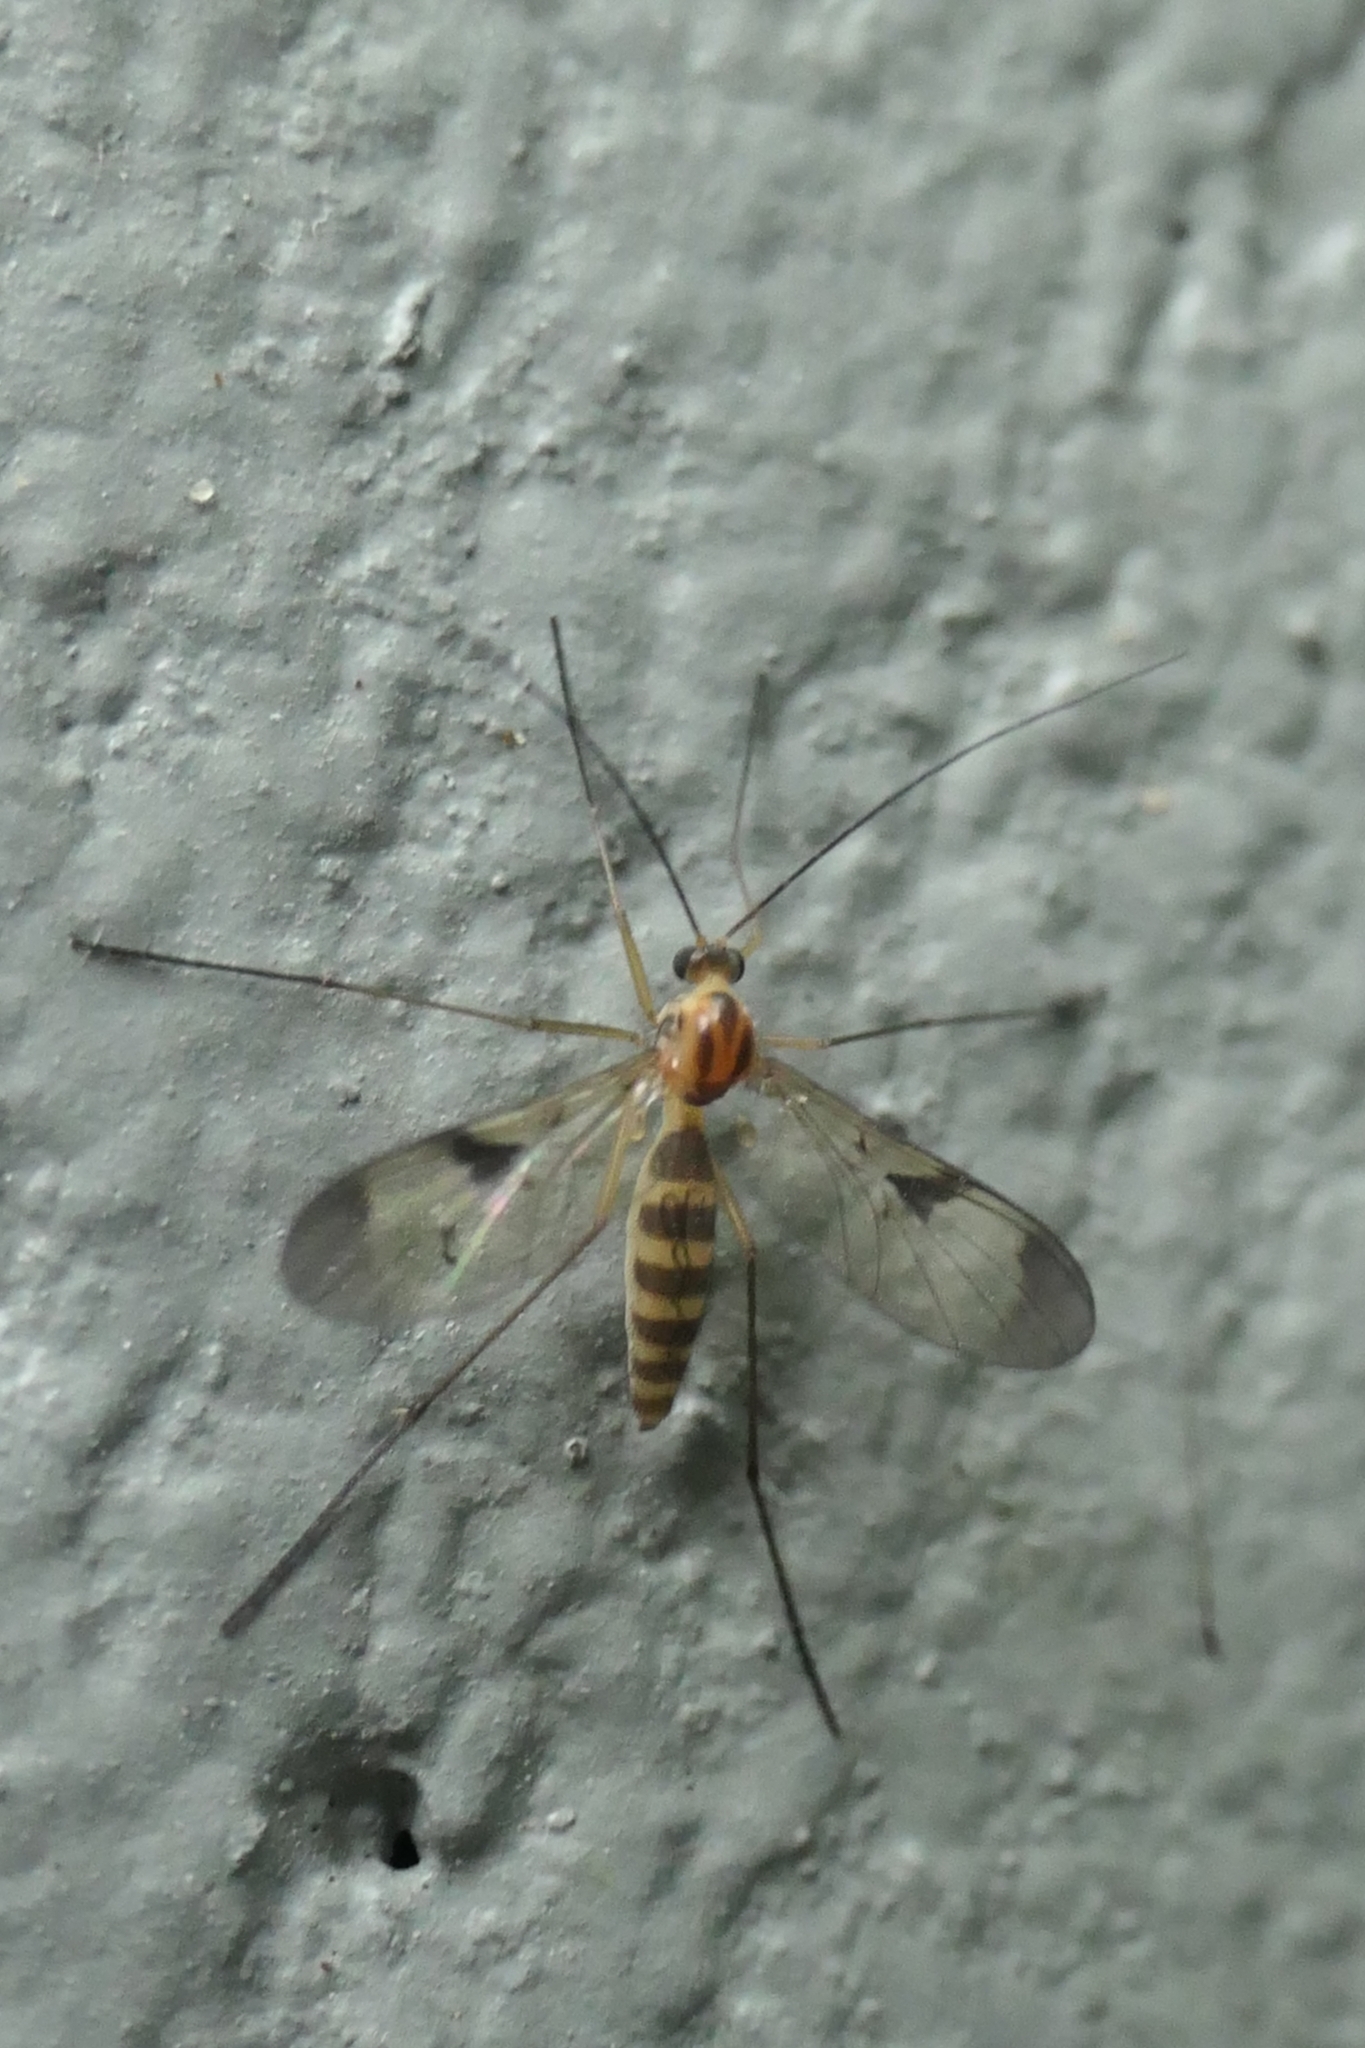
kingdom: Animalia
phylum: Arthropoda
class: Insecta
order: Diptera
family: Keroplatidae
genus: Macrocera
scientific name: Macrocera scoparia
